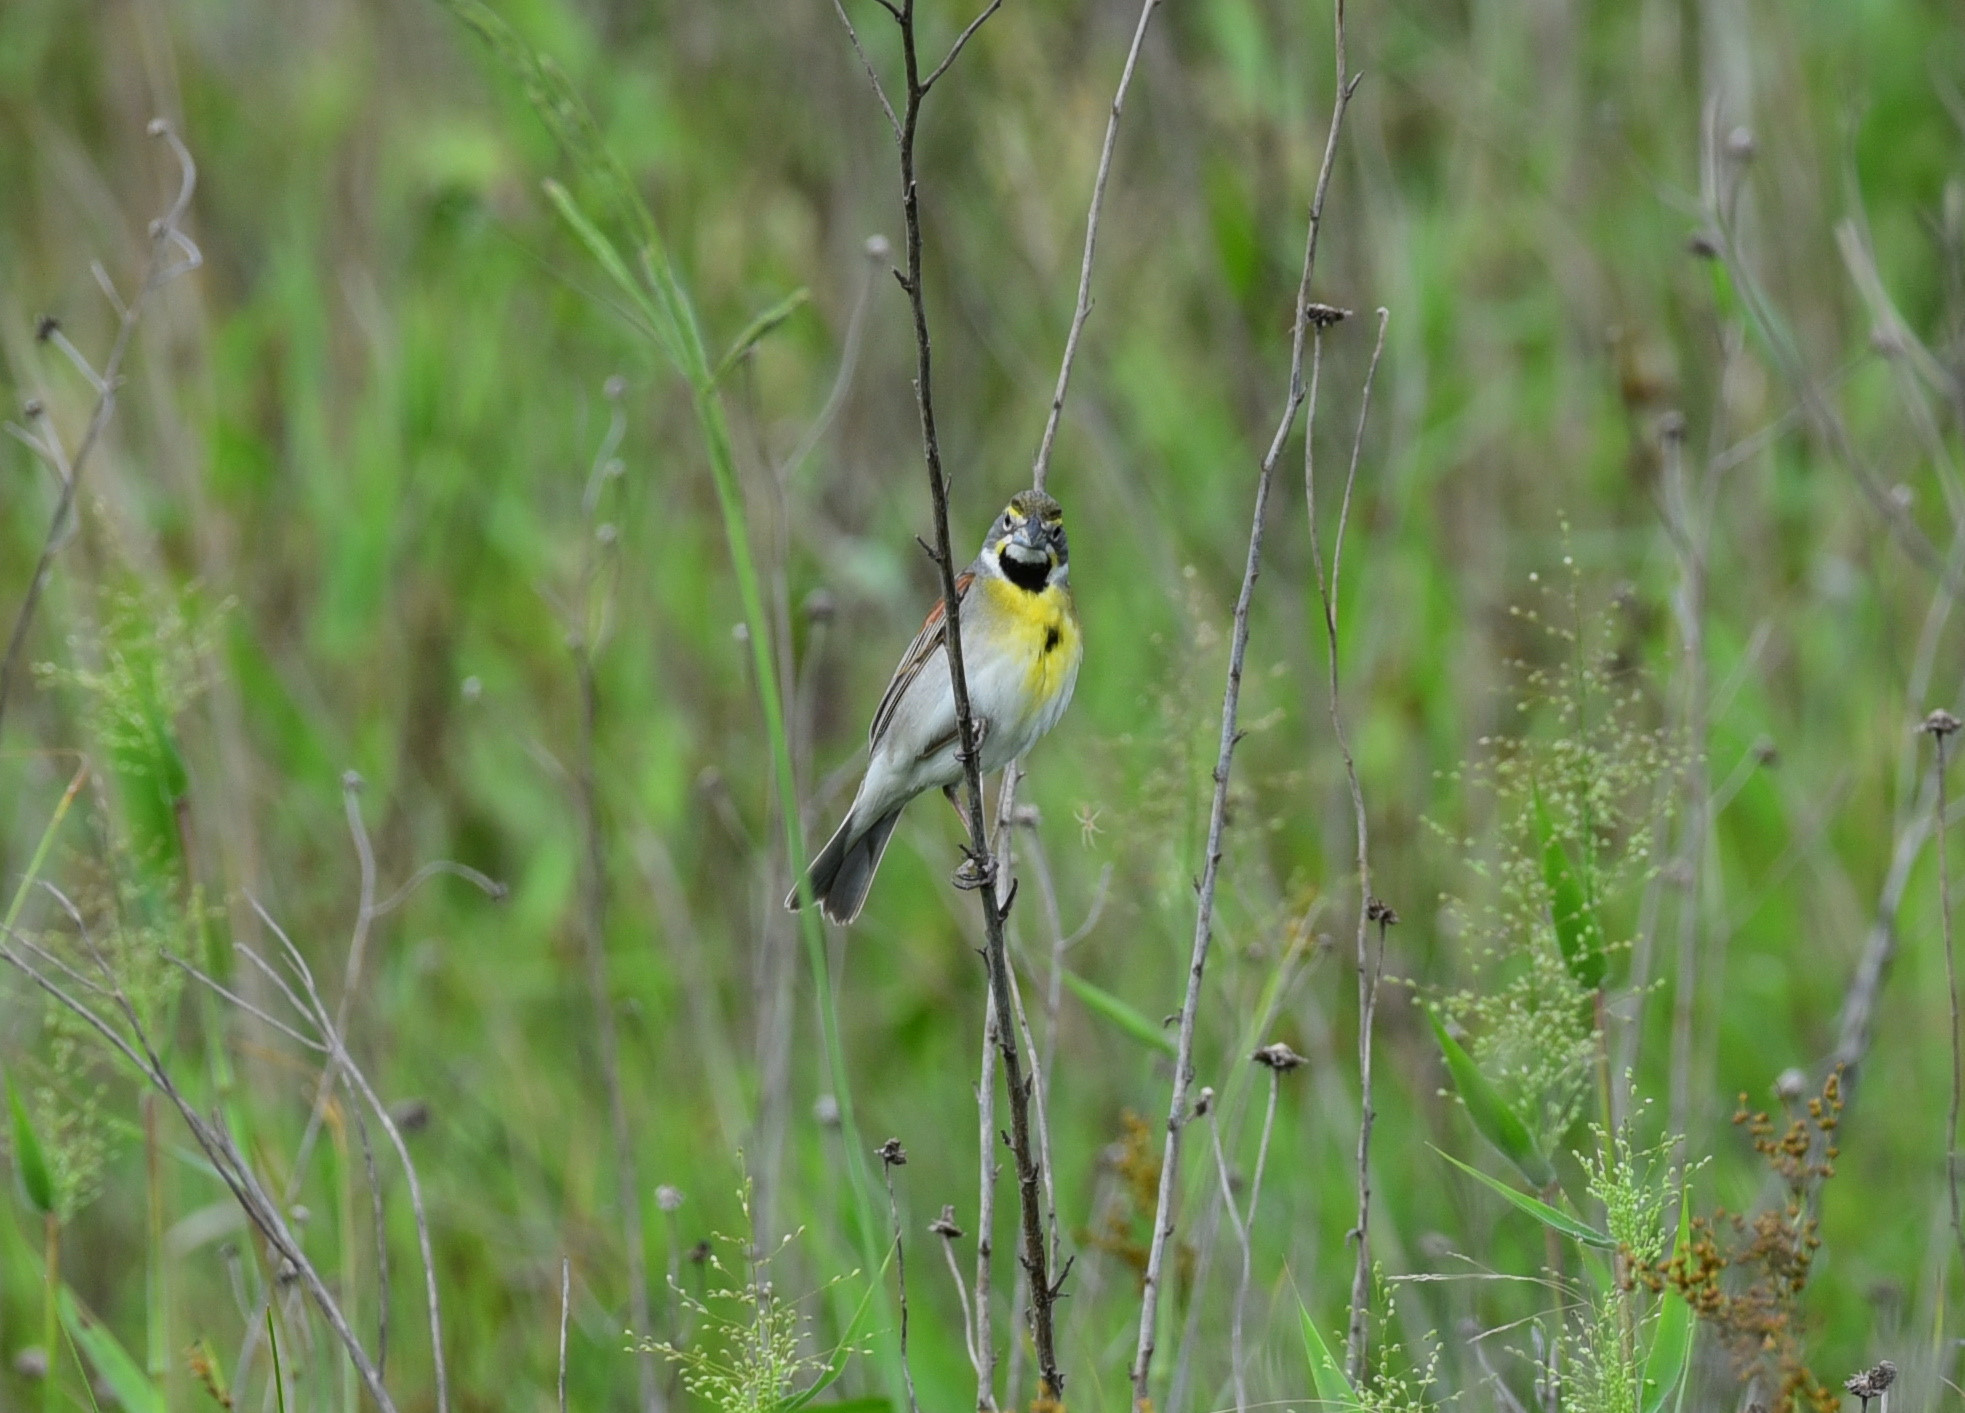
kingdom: Animalia
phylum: Chordata
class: Aves
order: Passeriformes
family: Cardinalidae
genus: Spiza
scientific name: Spiza americana
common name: Dickcissel
